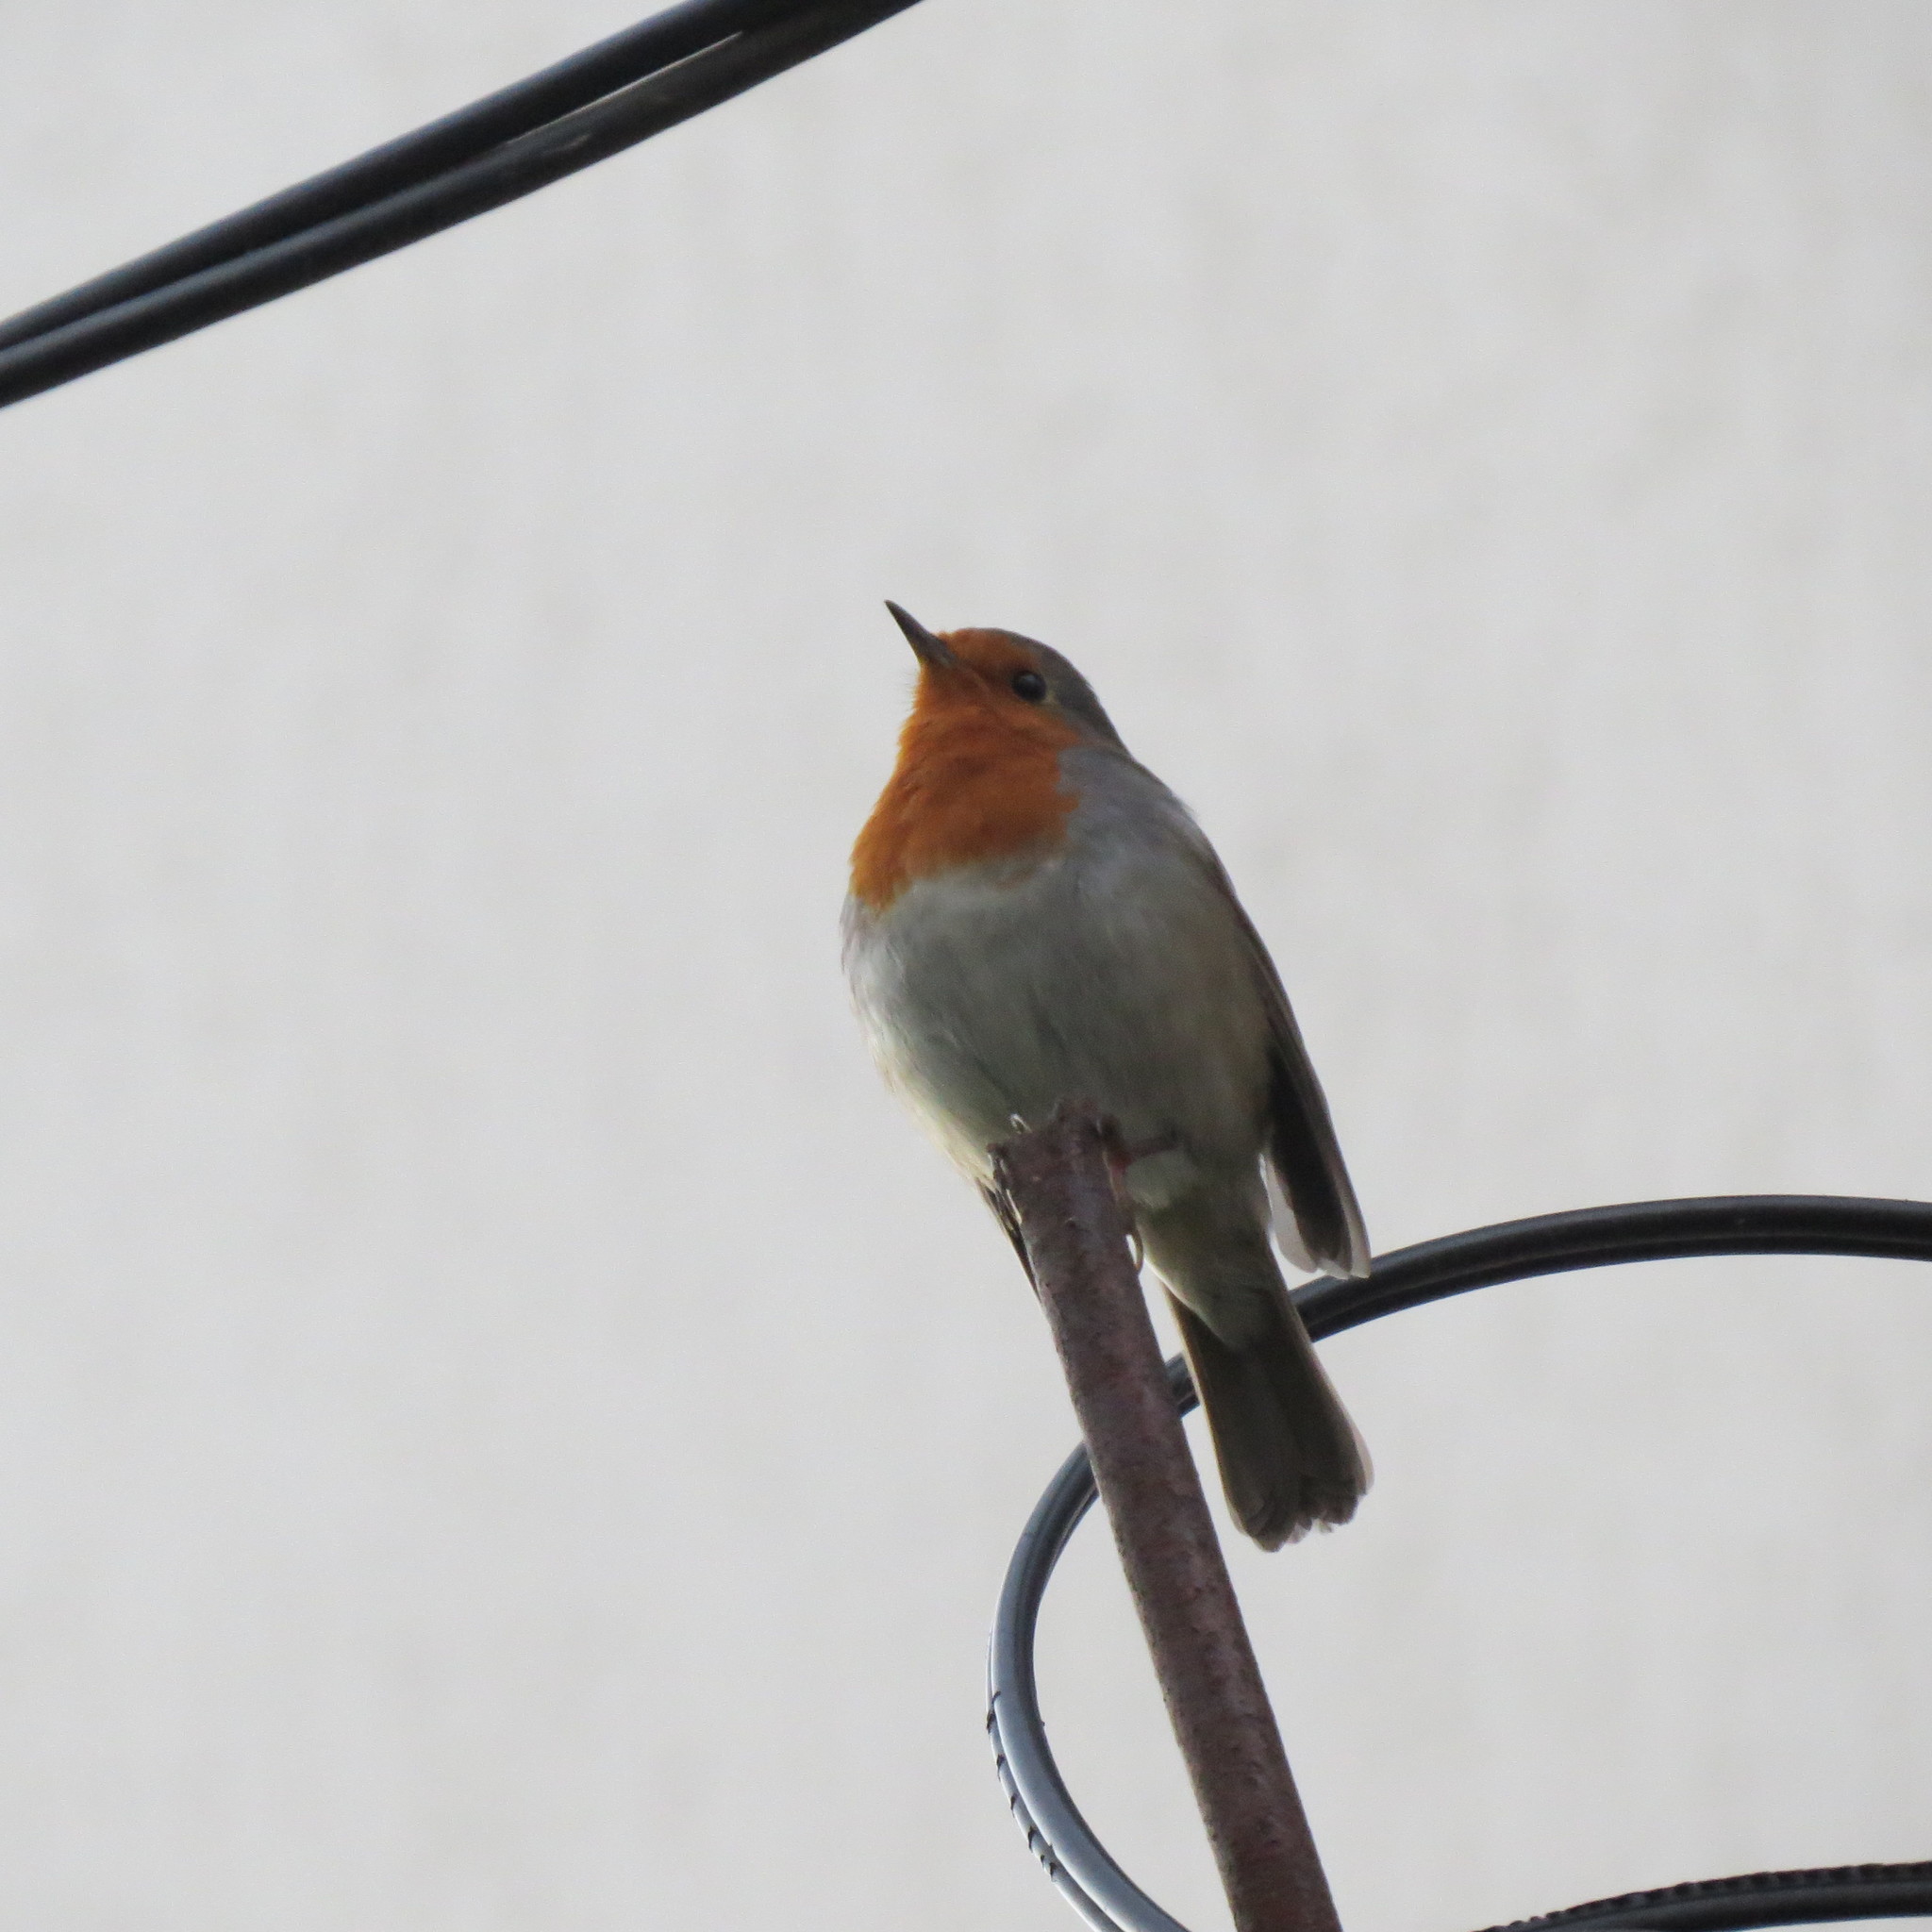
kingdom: Animalia
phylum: Chordata
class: Aves
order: Passeriformes
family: Muscicapidae
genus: Erithacus
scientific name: Erithacus rubecula
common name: European robin
